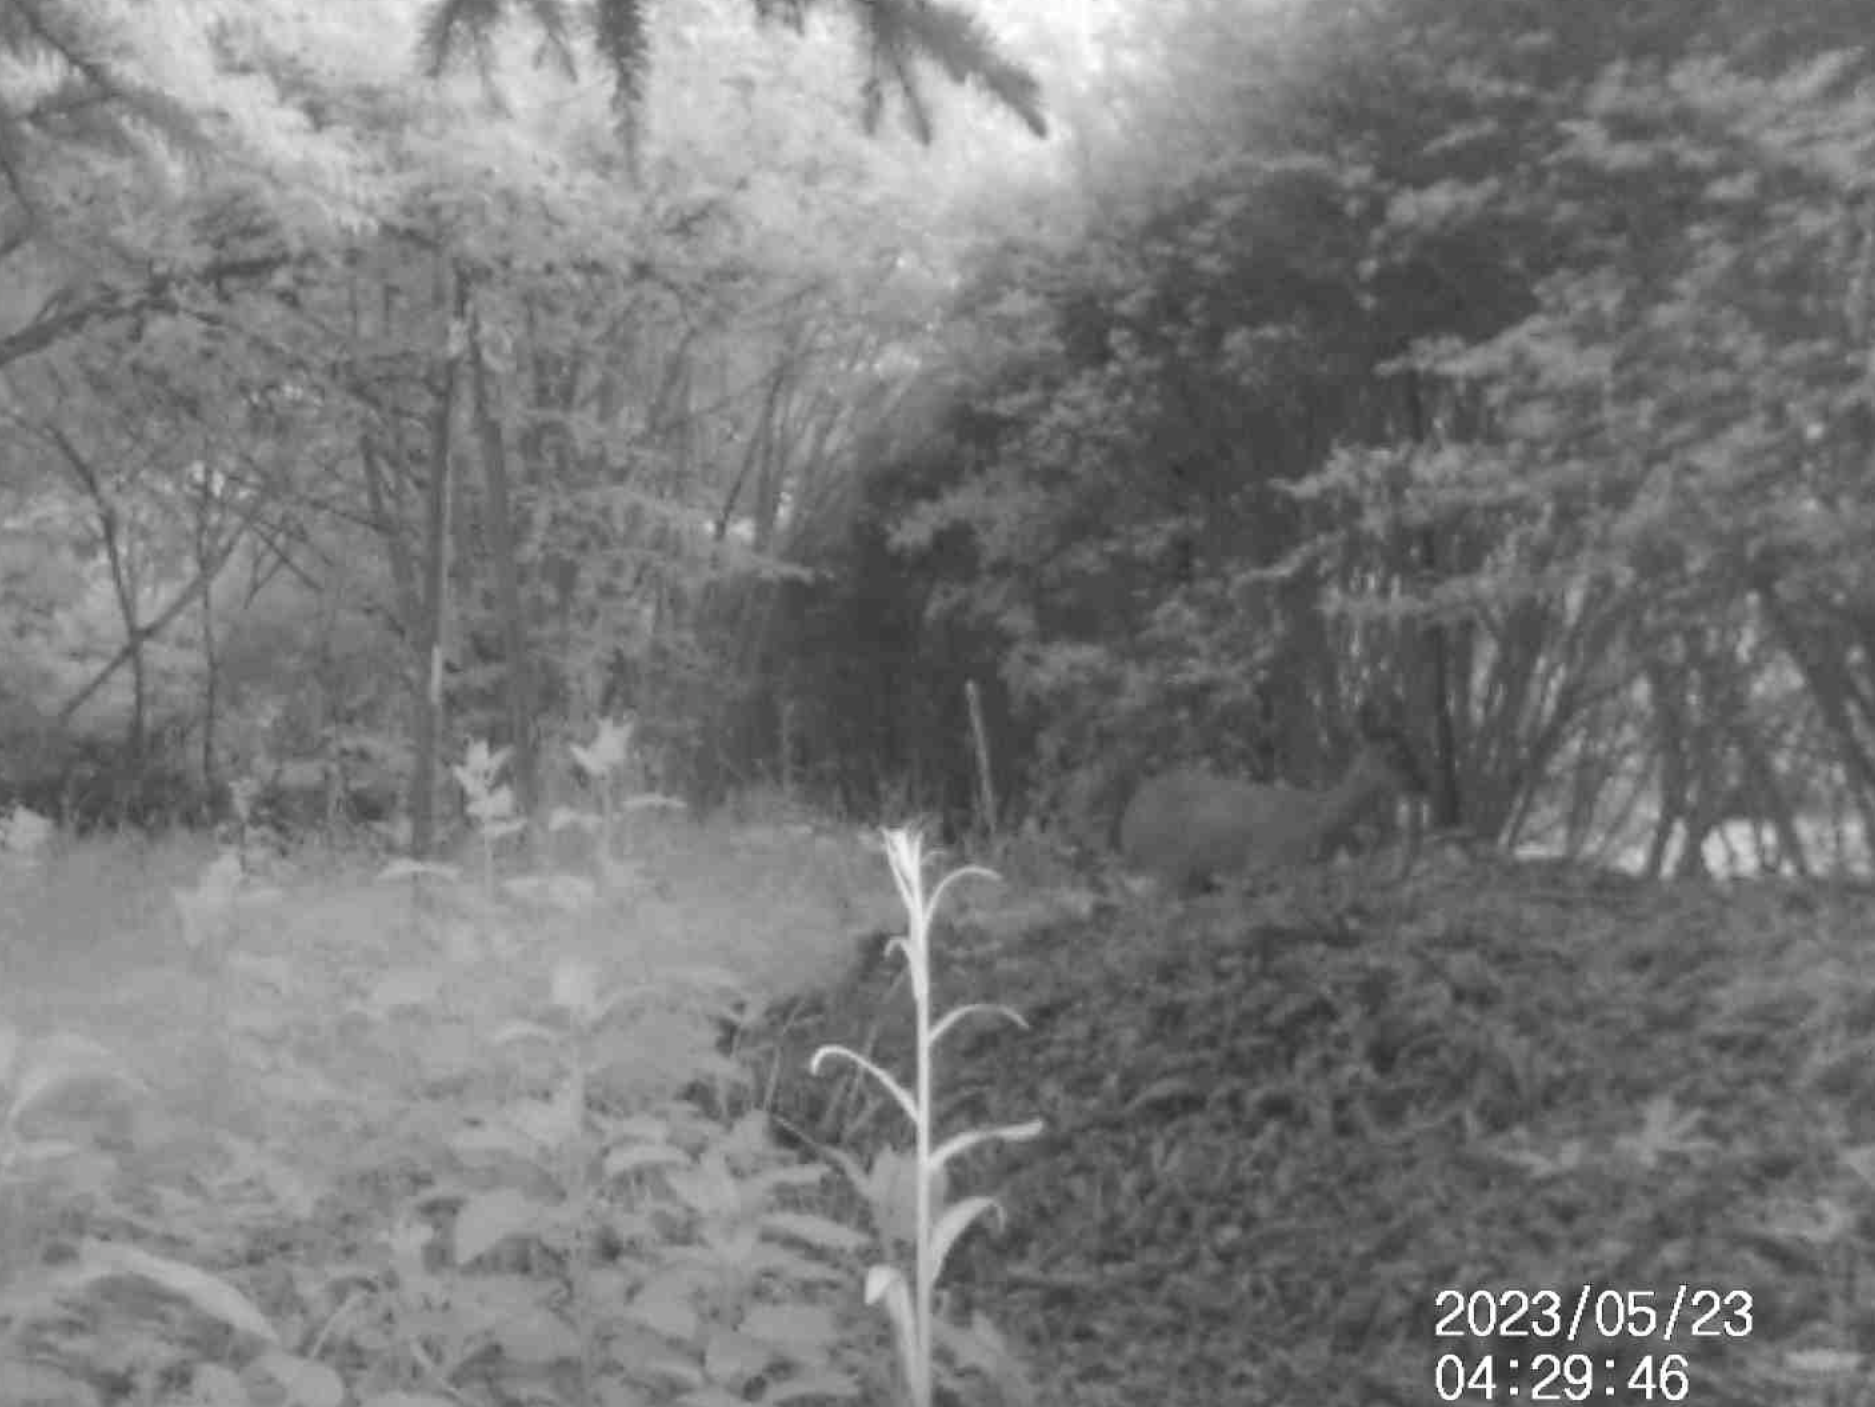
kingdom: Animalia
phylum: Chordata
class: Mammalia
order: Artiodactyla
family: Cervidae
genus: Capreolus
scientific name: Capreolus capreolus
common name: Western roe deer
